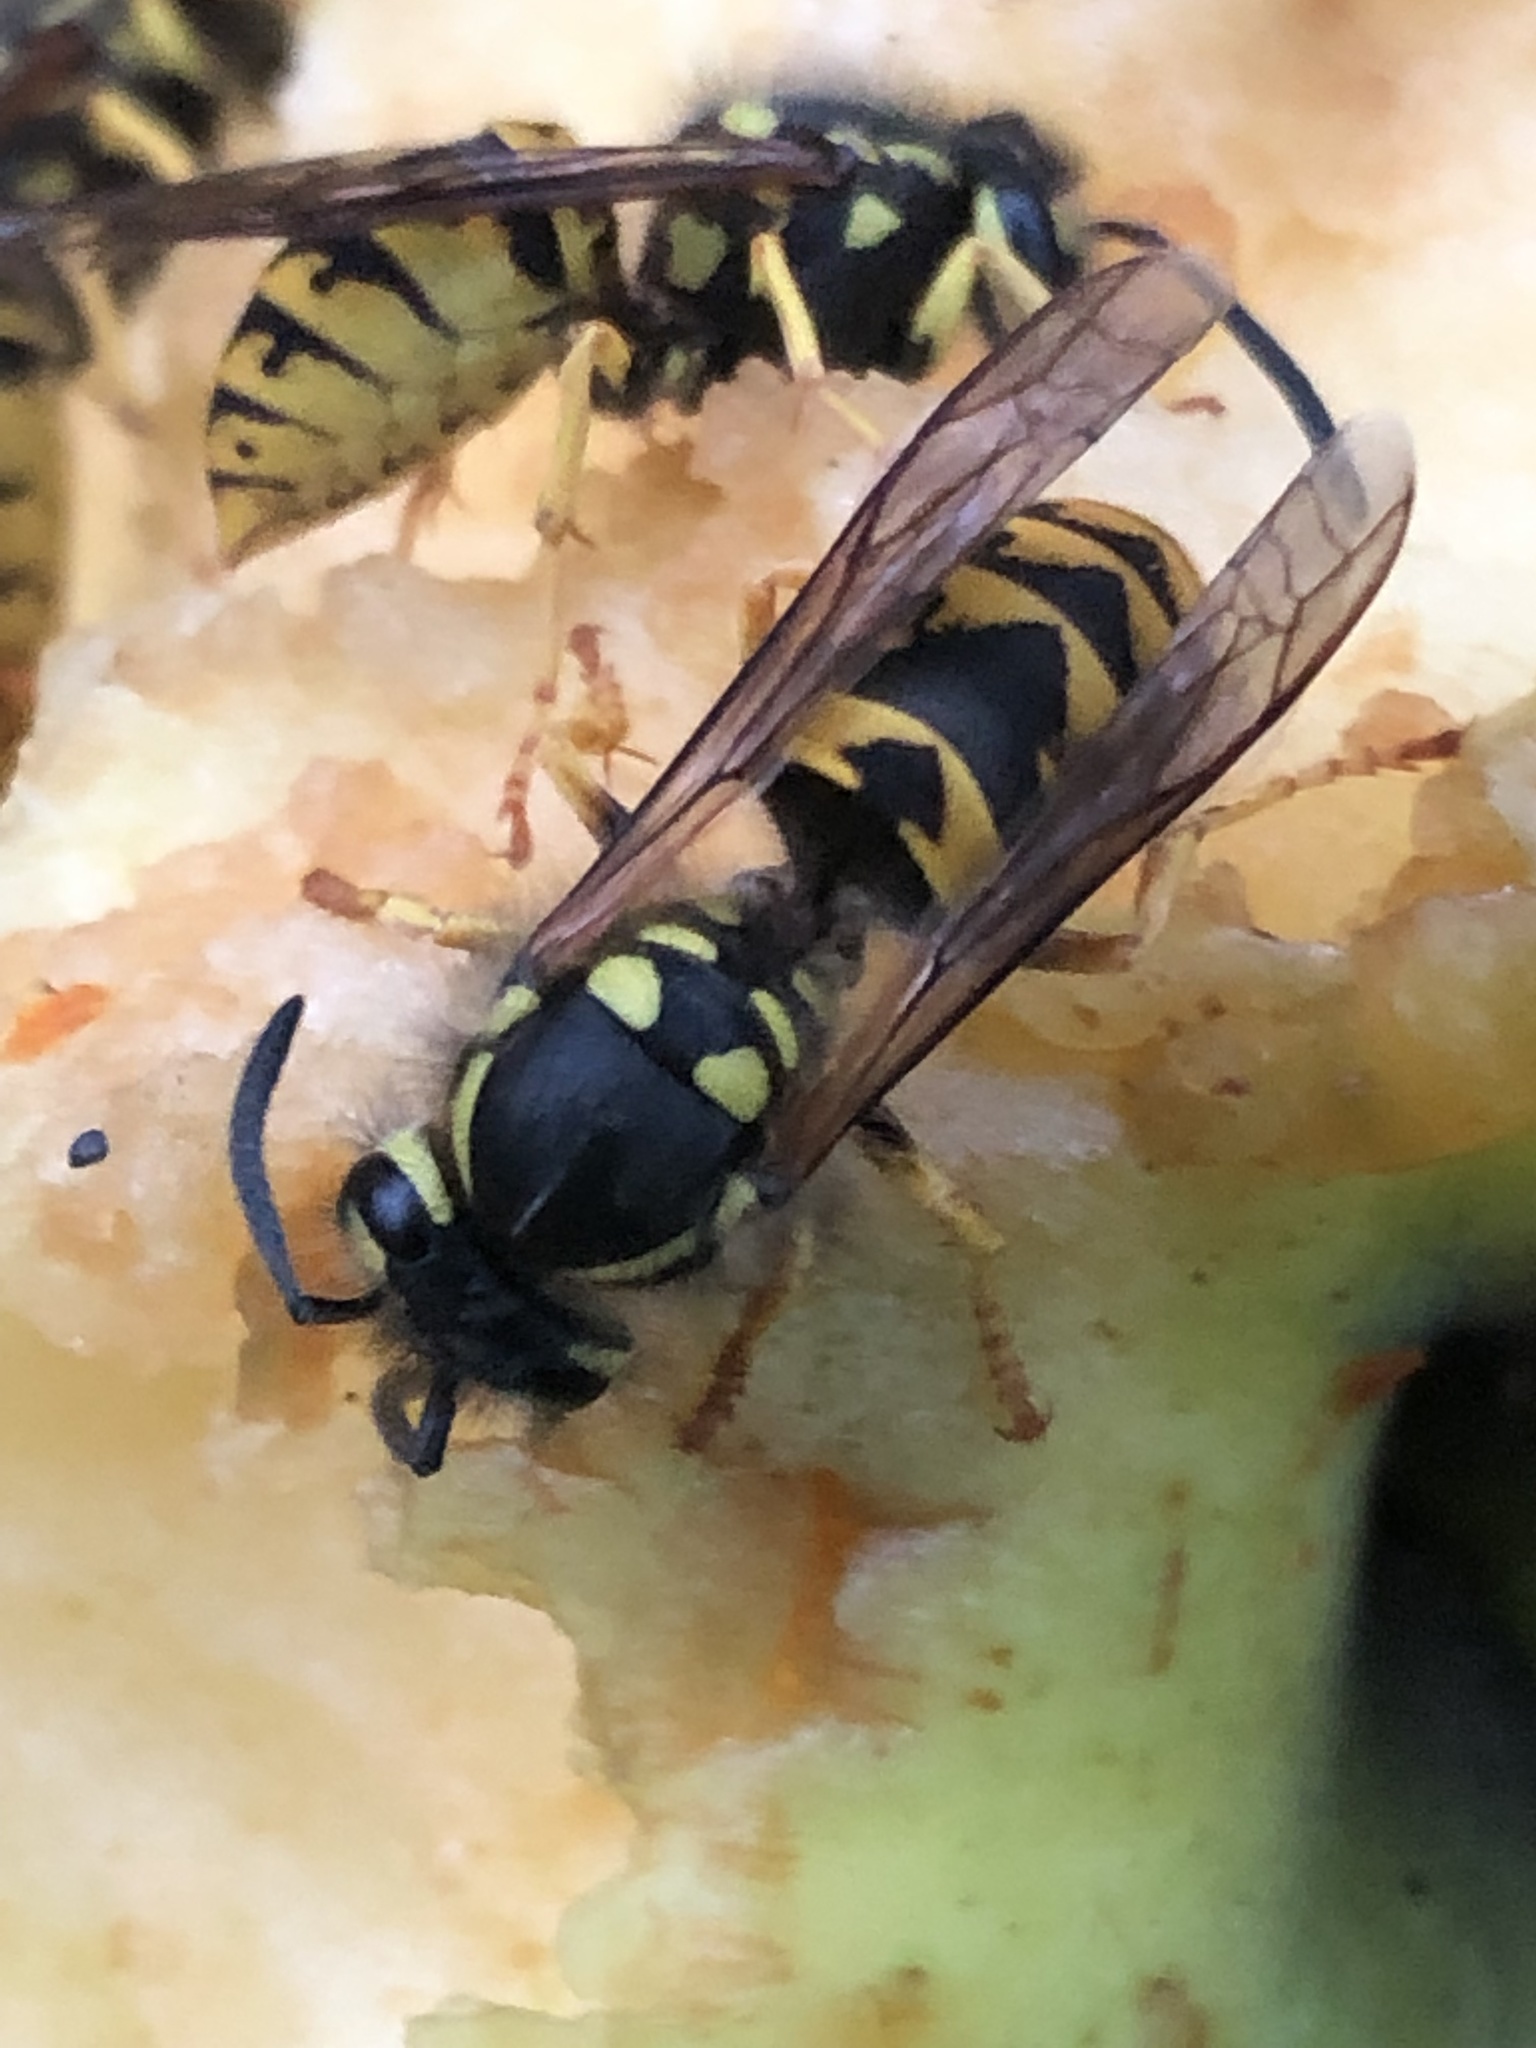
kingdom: Animalia
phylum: Arthropoda
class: Insecta
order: Hymenoptera
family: Vespidae
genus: Vespula
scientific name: Vespula germanica
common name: German wasp
